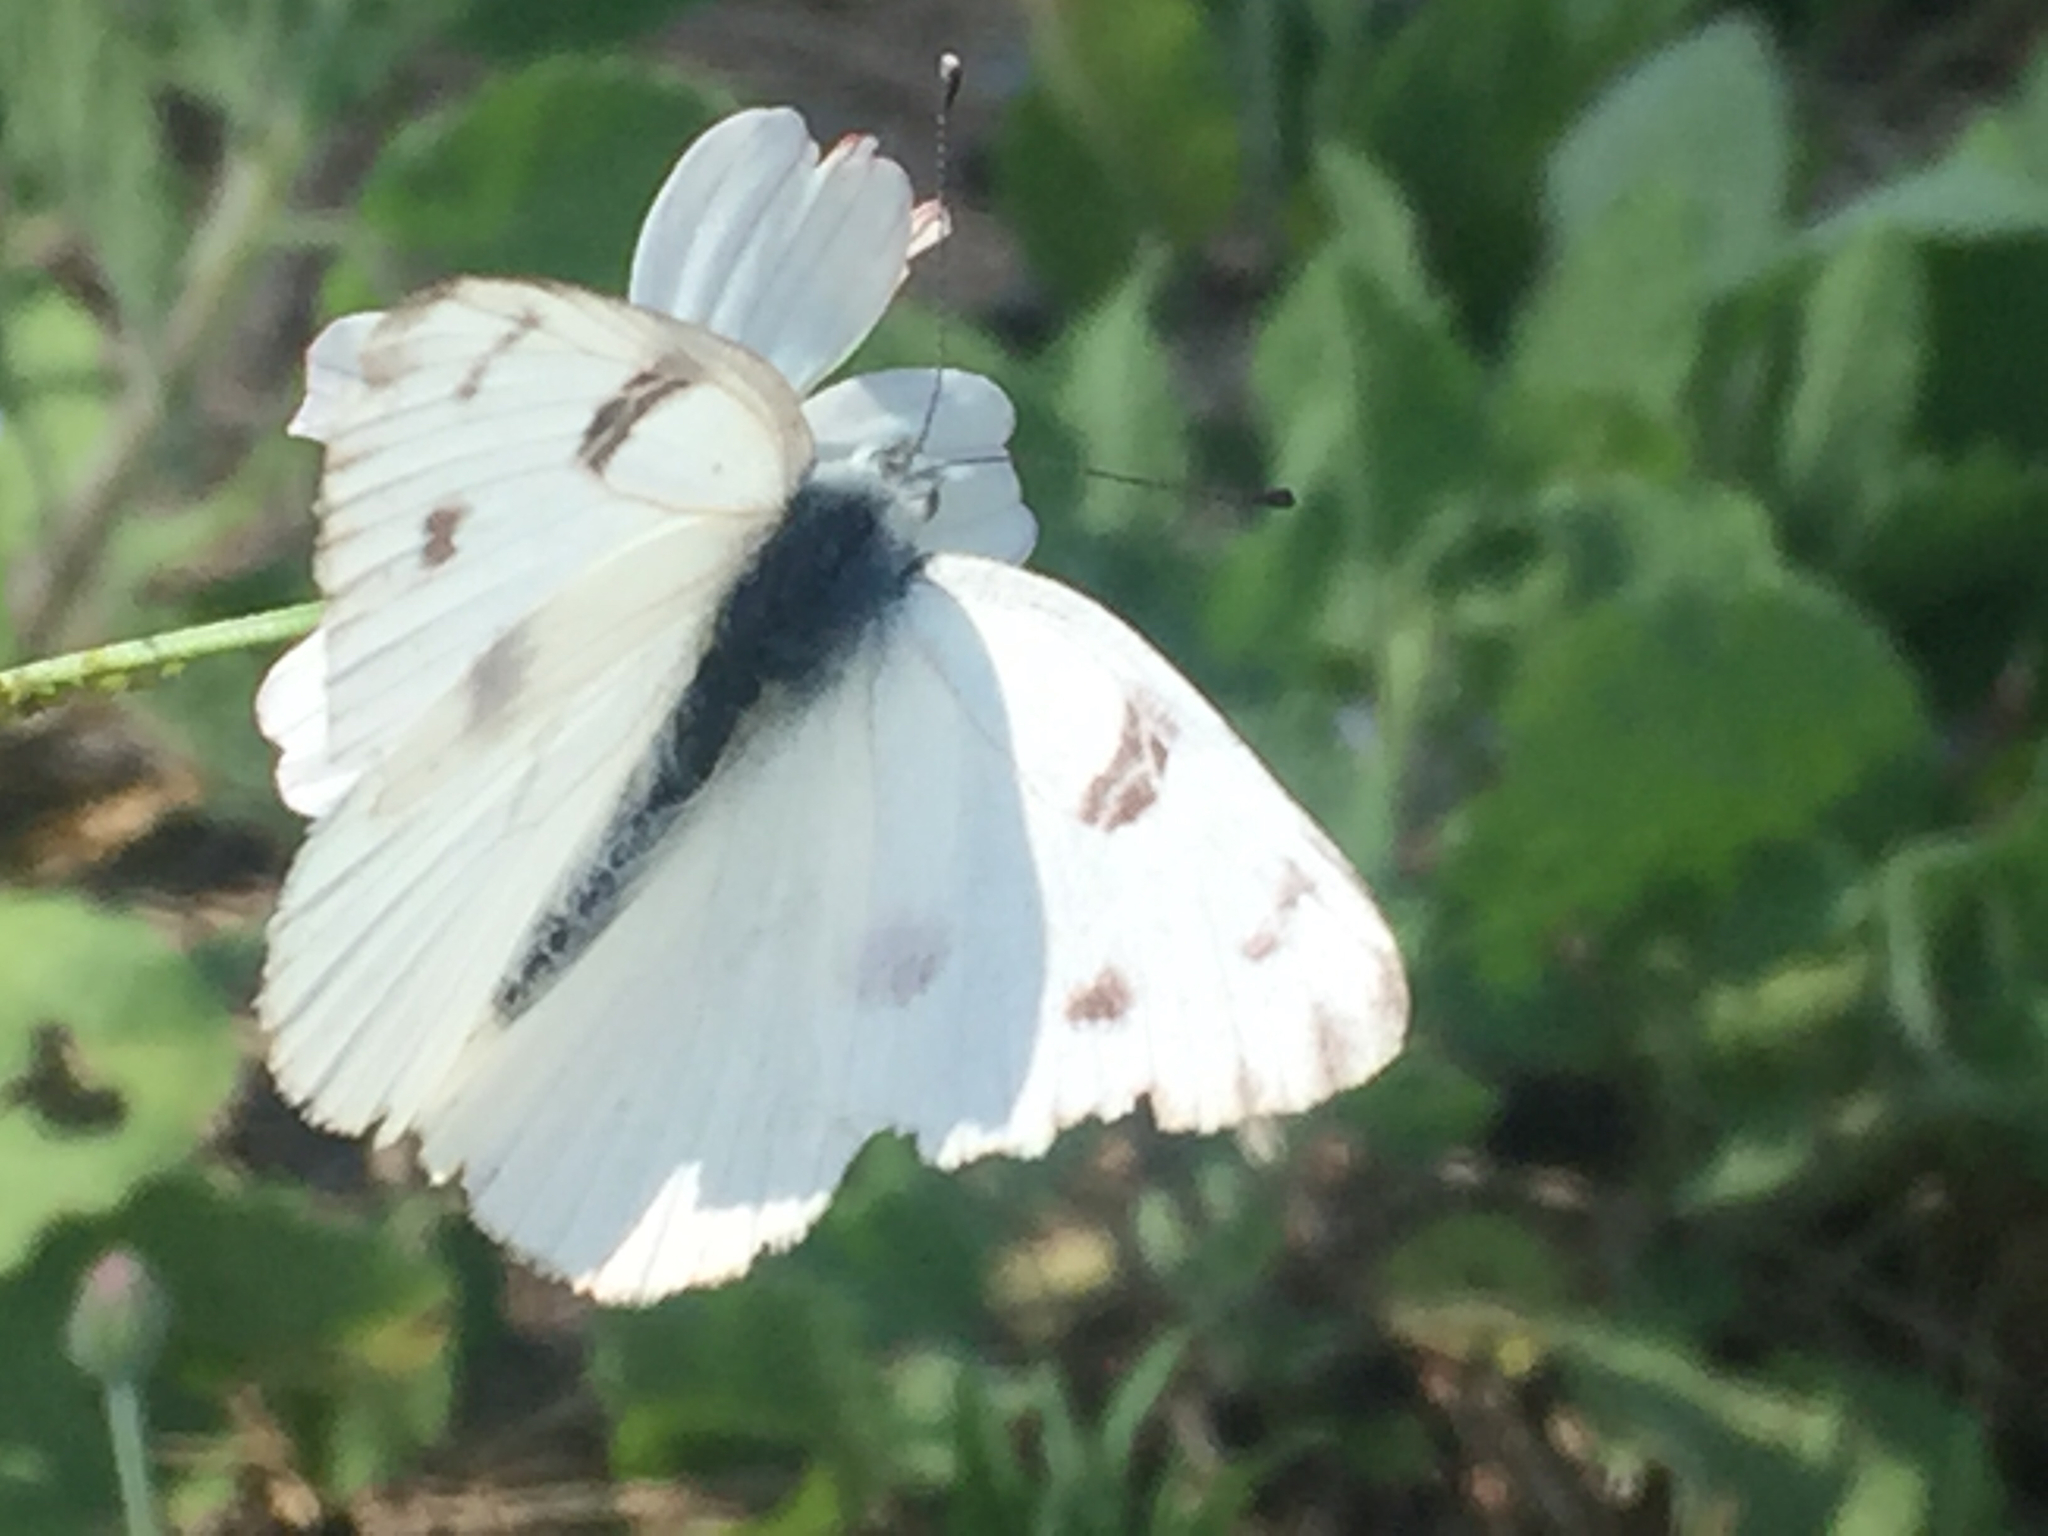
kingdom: Animalia
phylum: Arthropoda
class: Insecta
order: Lepidoptera
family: Pieridae
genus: Pontia
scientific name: Pontia protodice
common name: Checkered white
